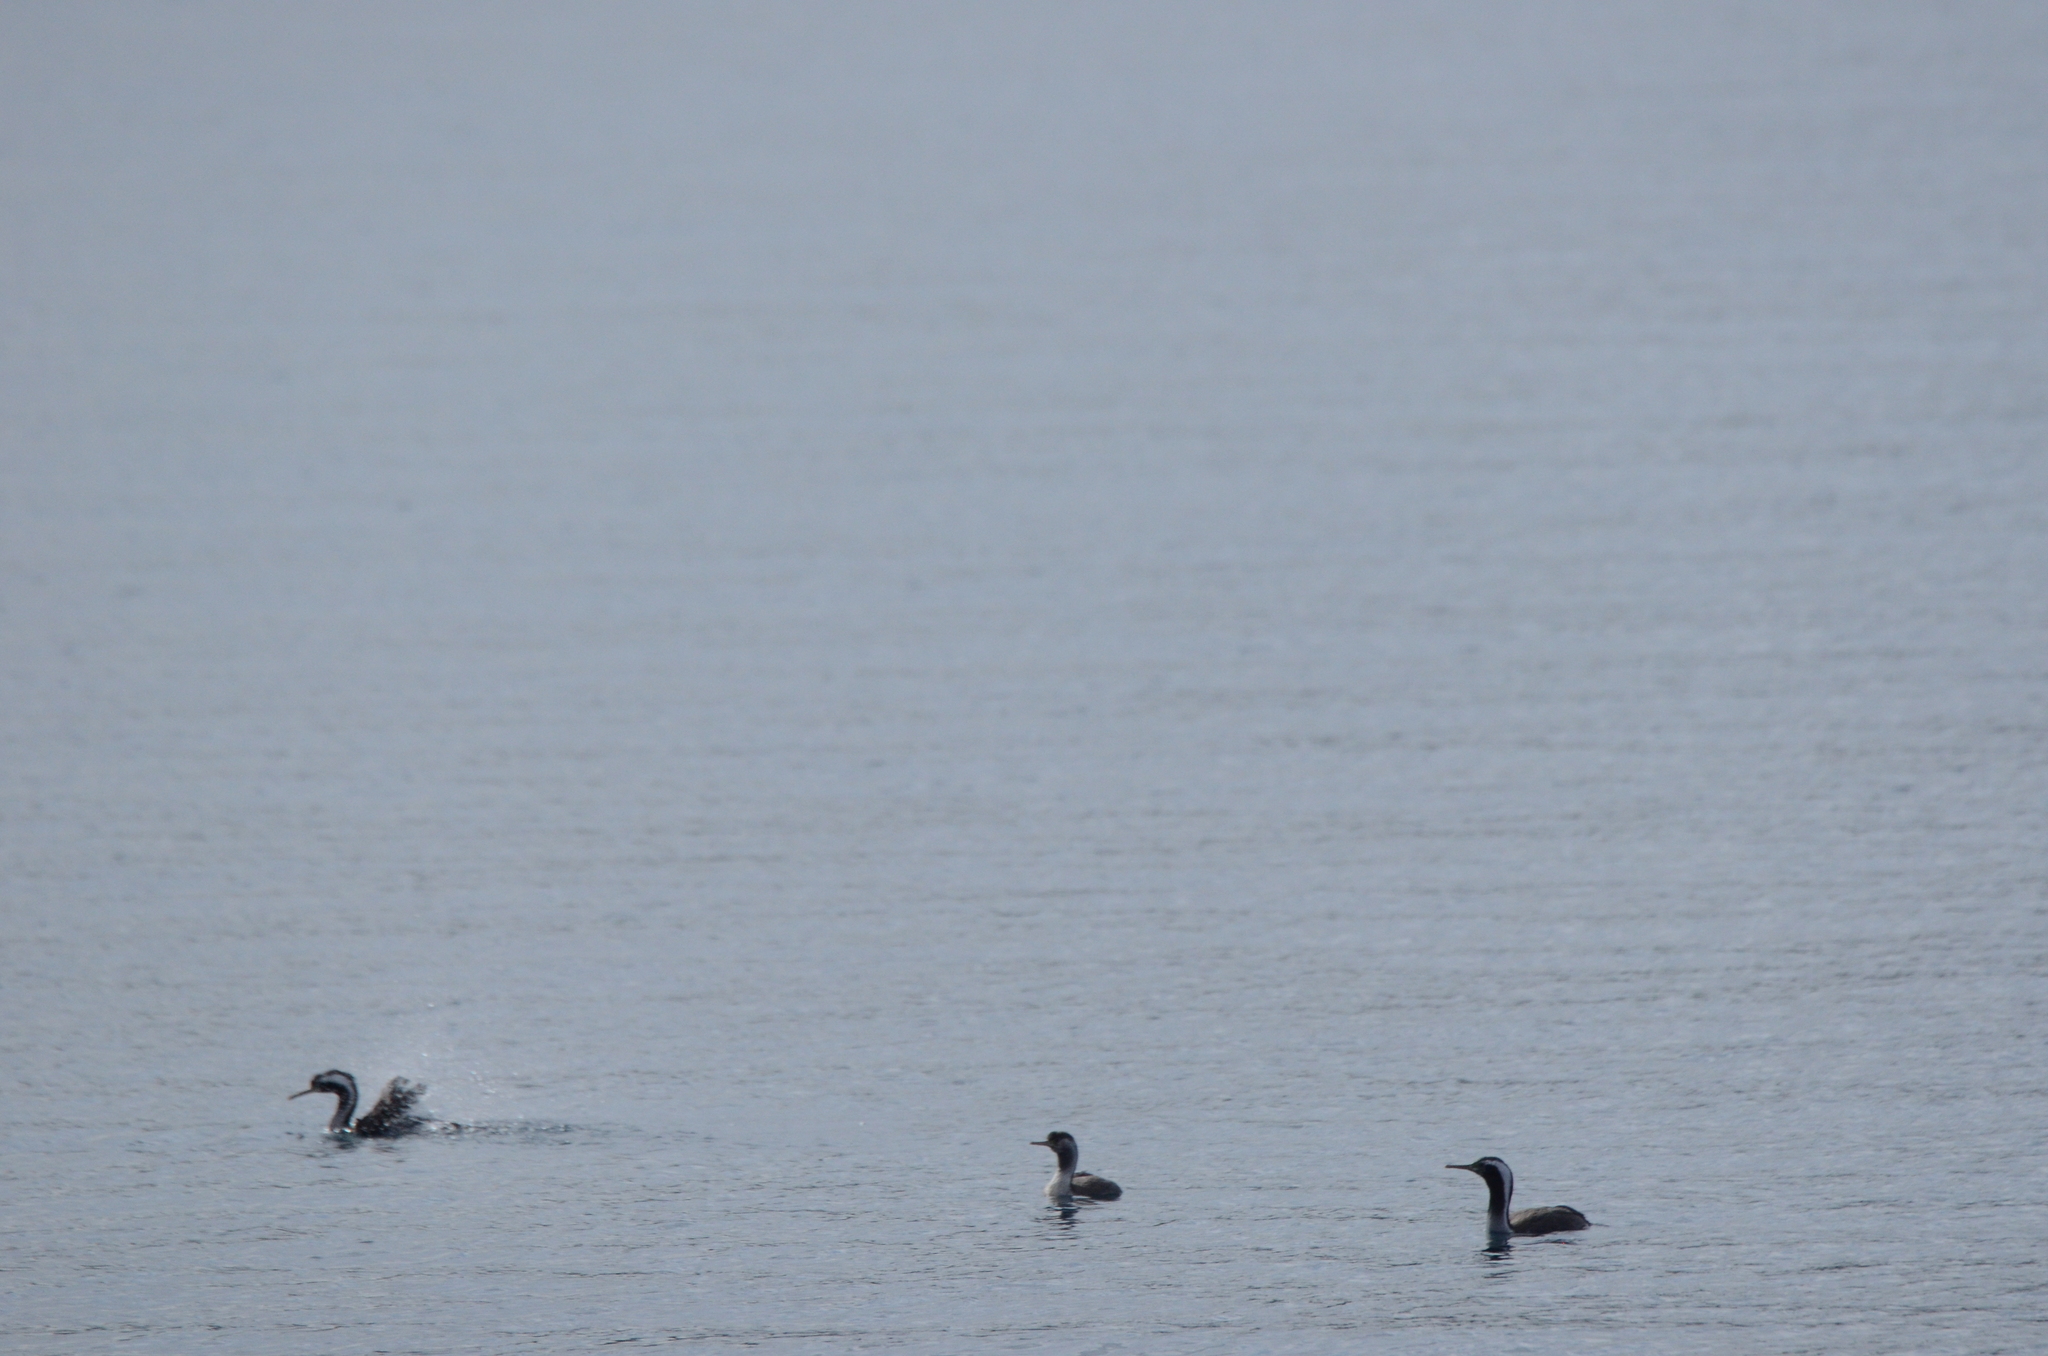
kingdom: Animalia
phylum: Chordata
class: Aves
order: Suliformes
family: Phalacrocoracidae
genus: Phalacrocorax
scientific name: Phalacrocorax punctatus
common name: Spotted shag
